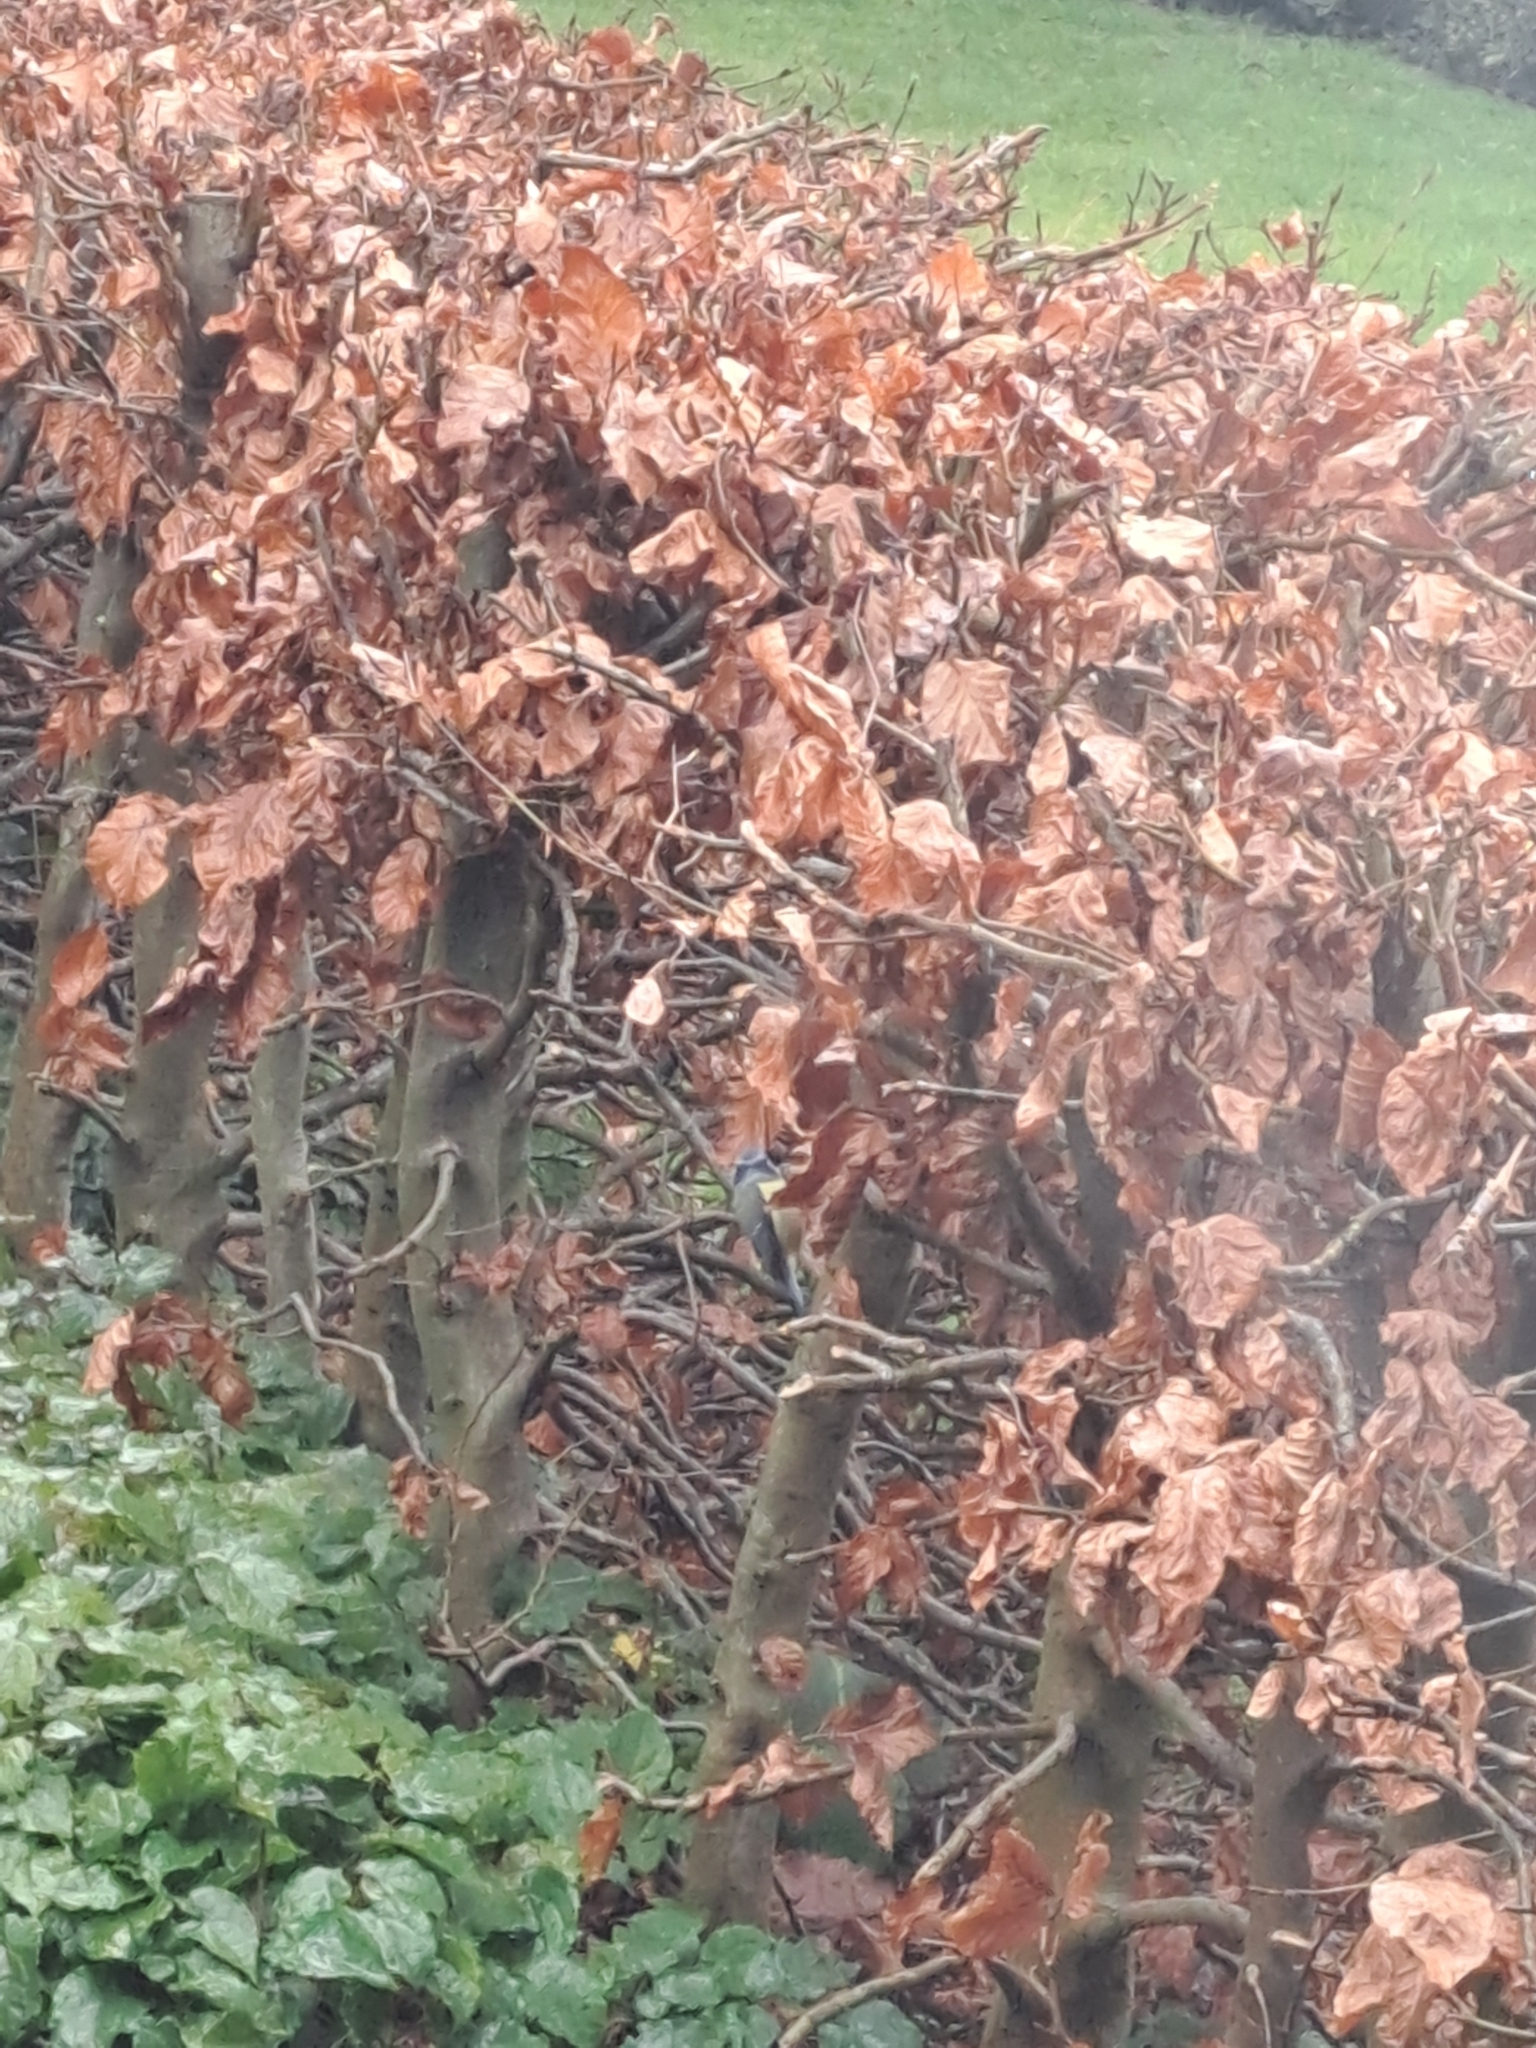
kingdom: Animalia
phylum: Chordata
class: Aves
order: Passeriformes
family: Paridae
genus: Cyanistes
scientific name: Cyanistes caeruleus
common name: Eurasian blue tit
